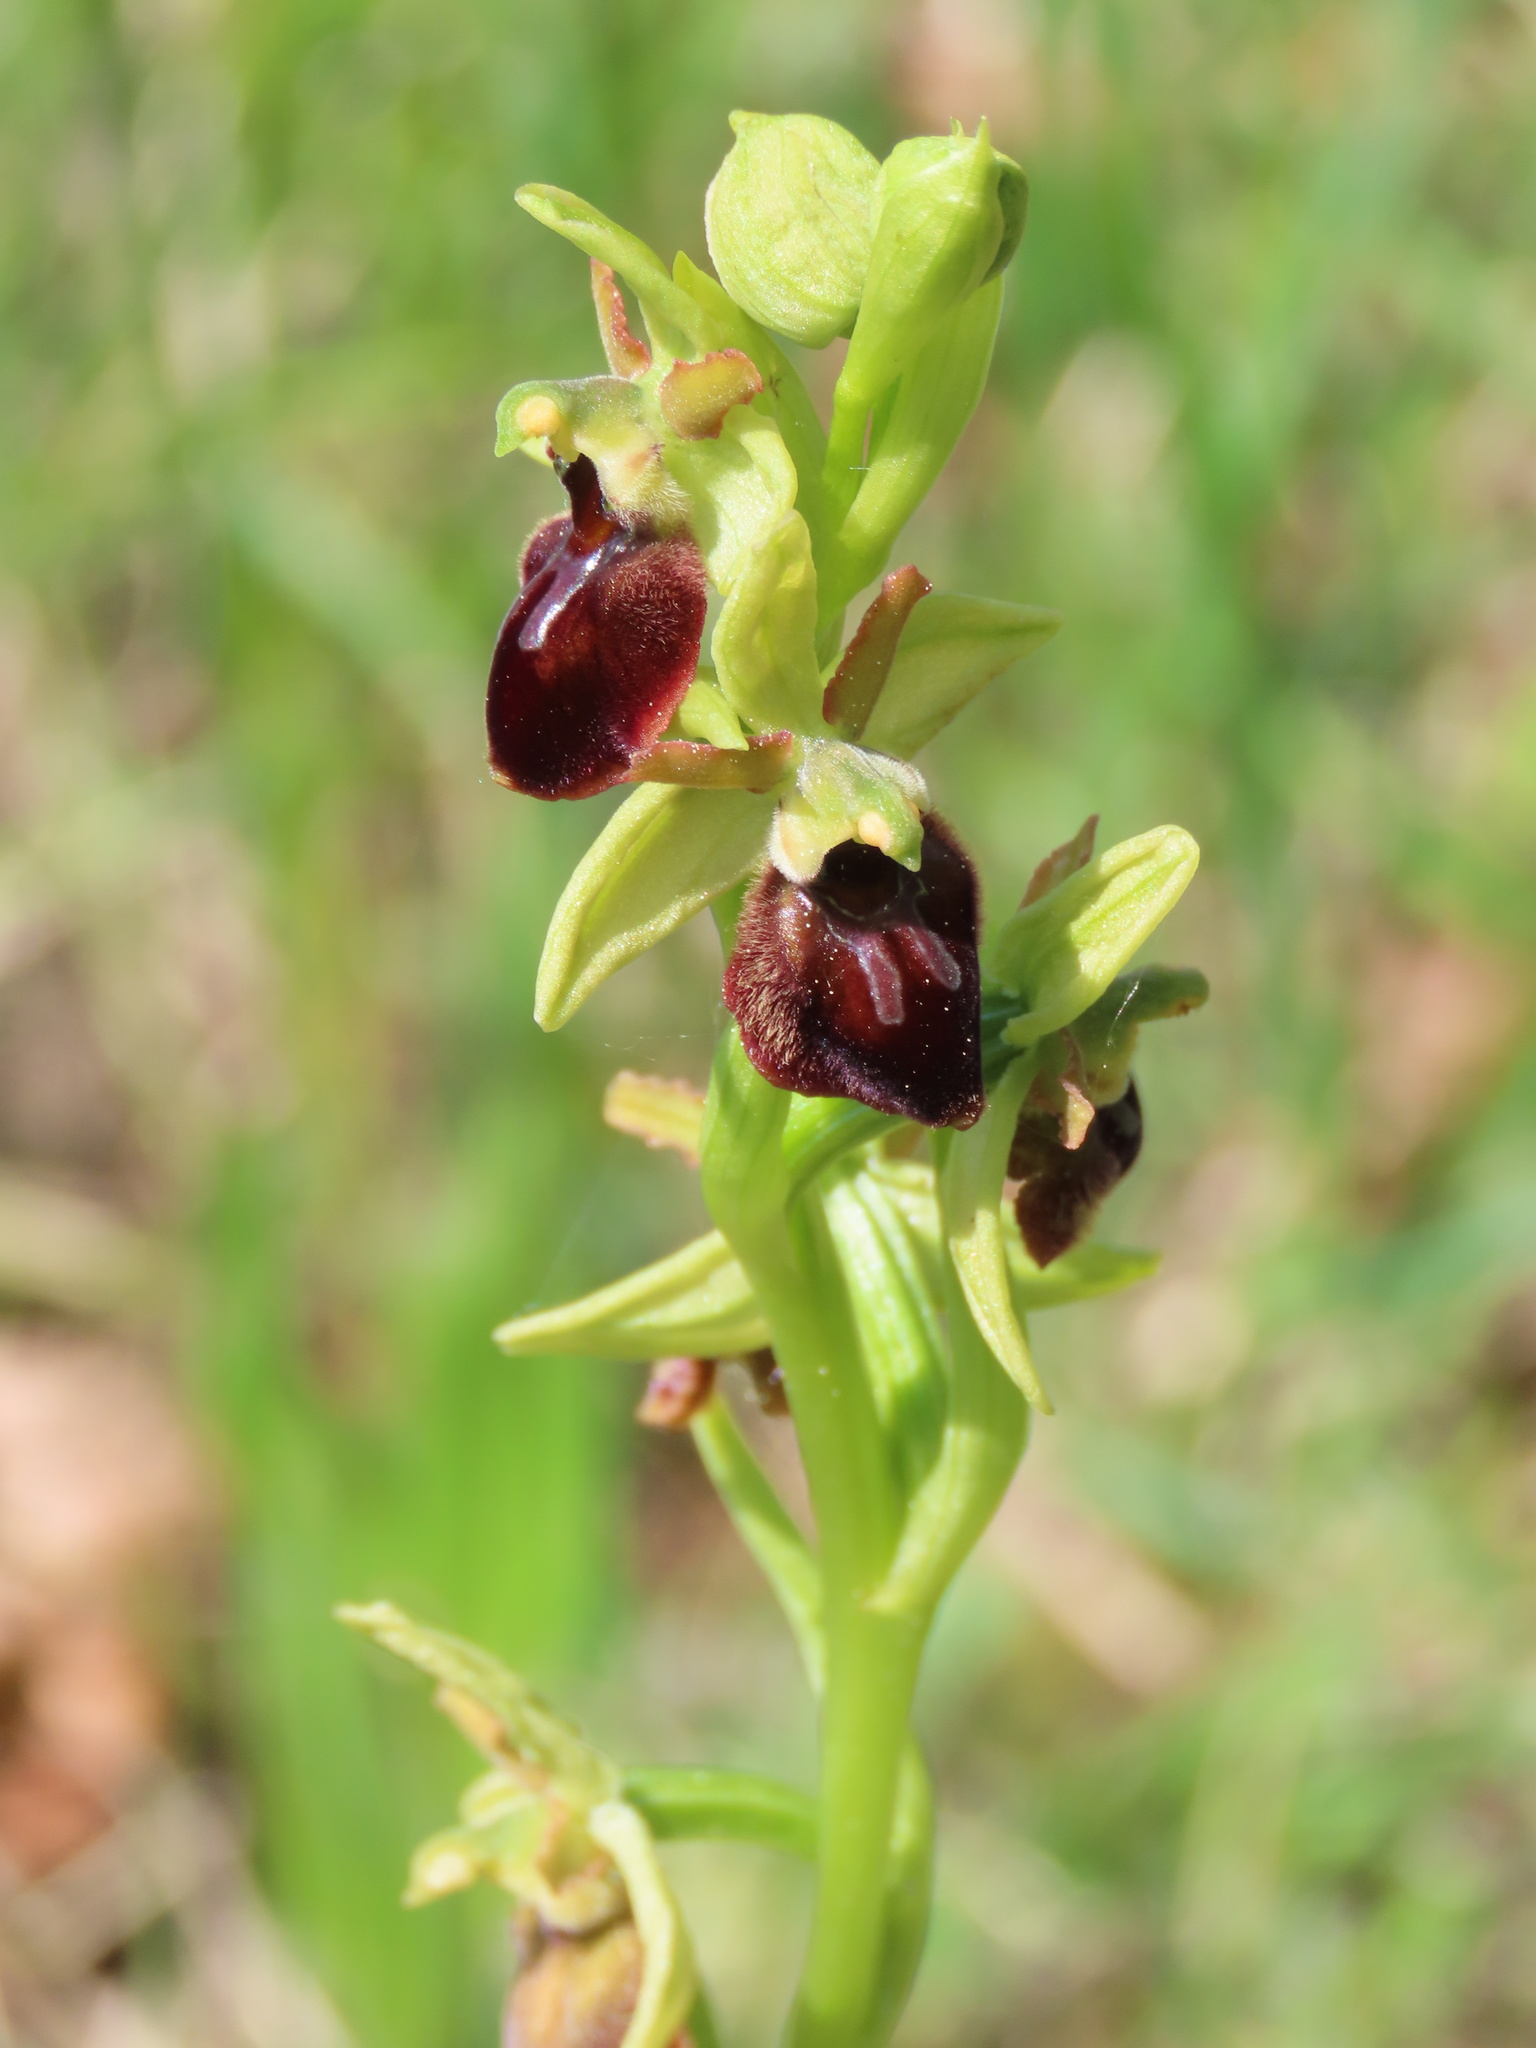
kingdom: Plantae
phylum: Tracheophyta
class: Liliopsida
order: Asparagales
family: Orchidaceae
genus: Ophrys
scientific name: Ophrys sphegodes
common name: Early spider-orchid
